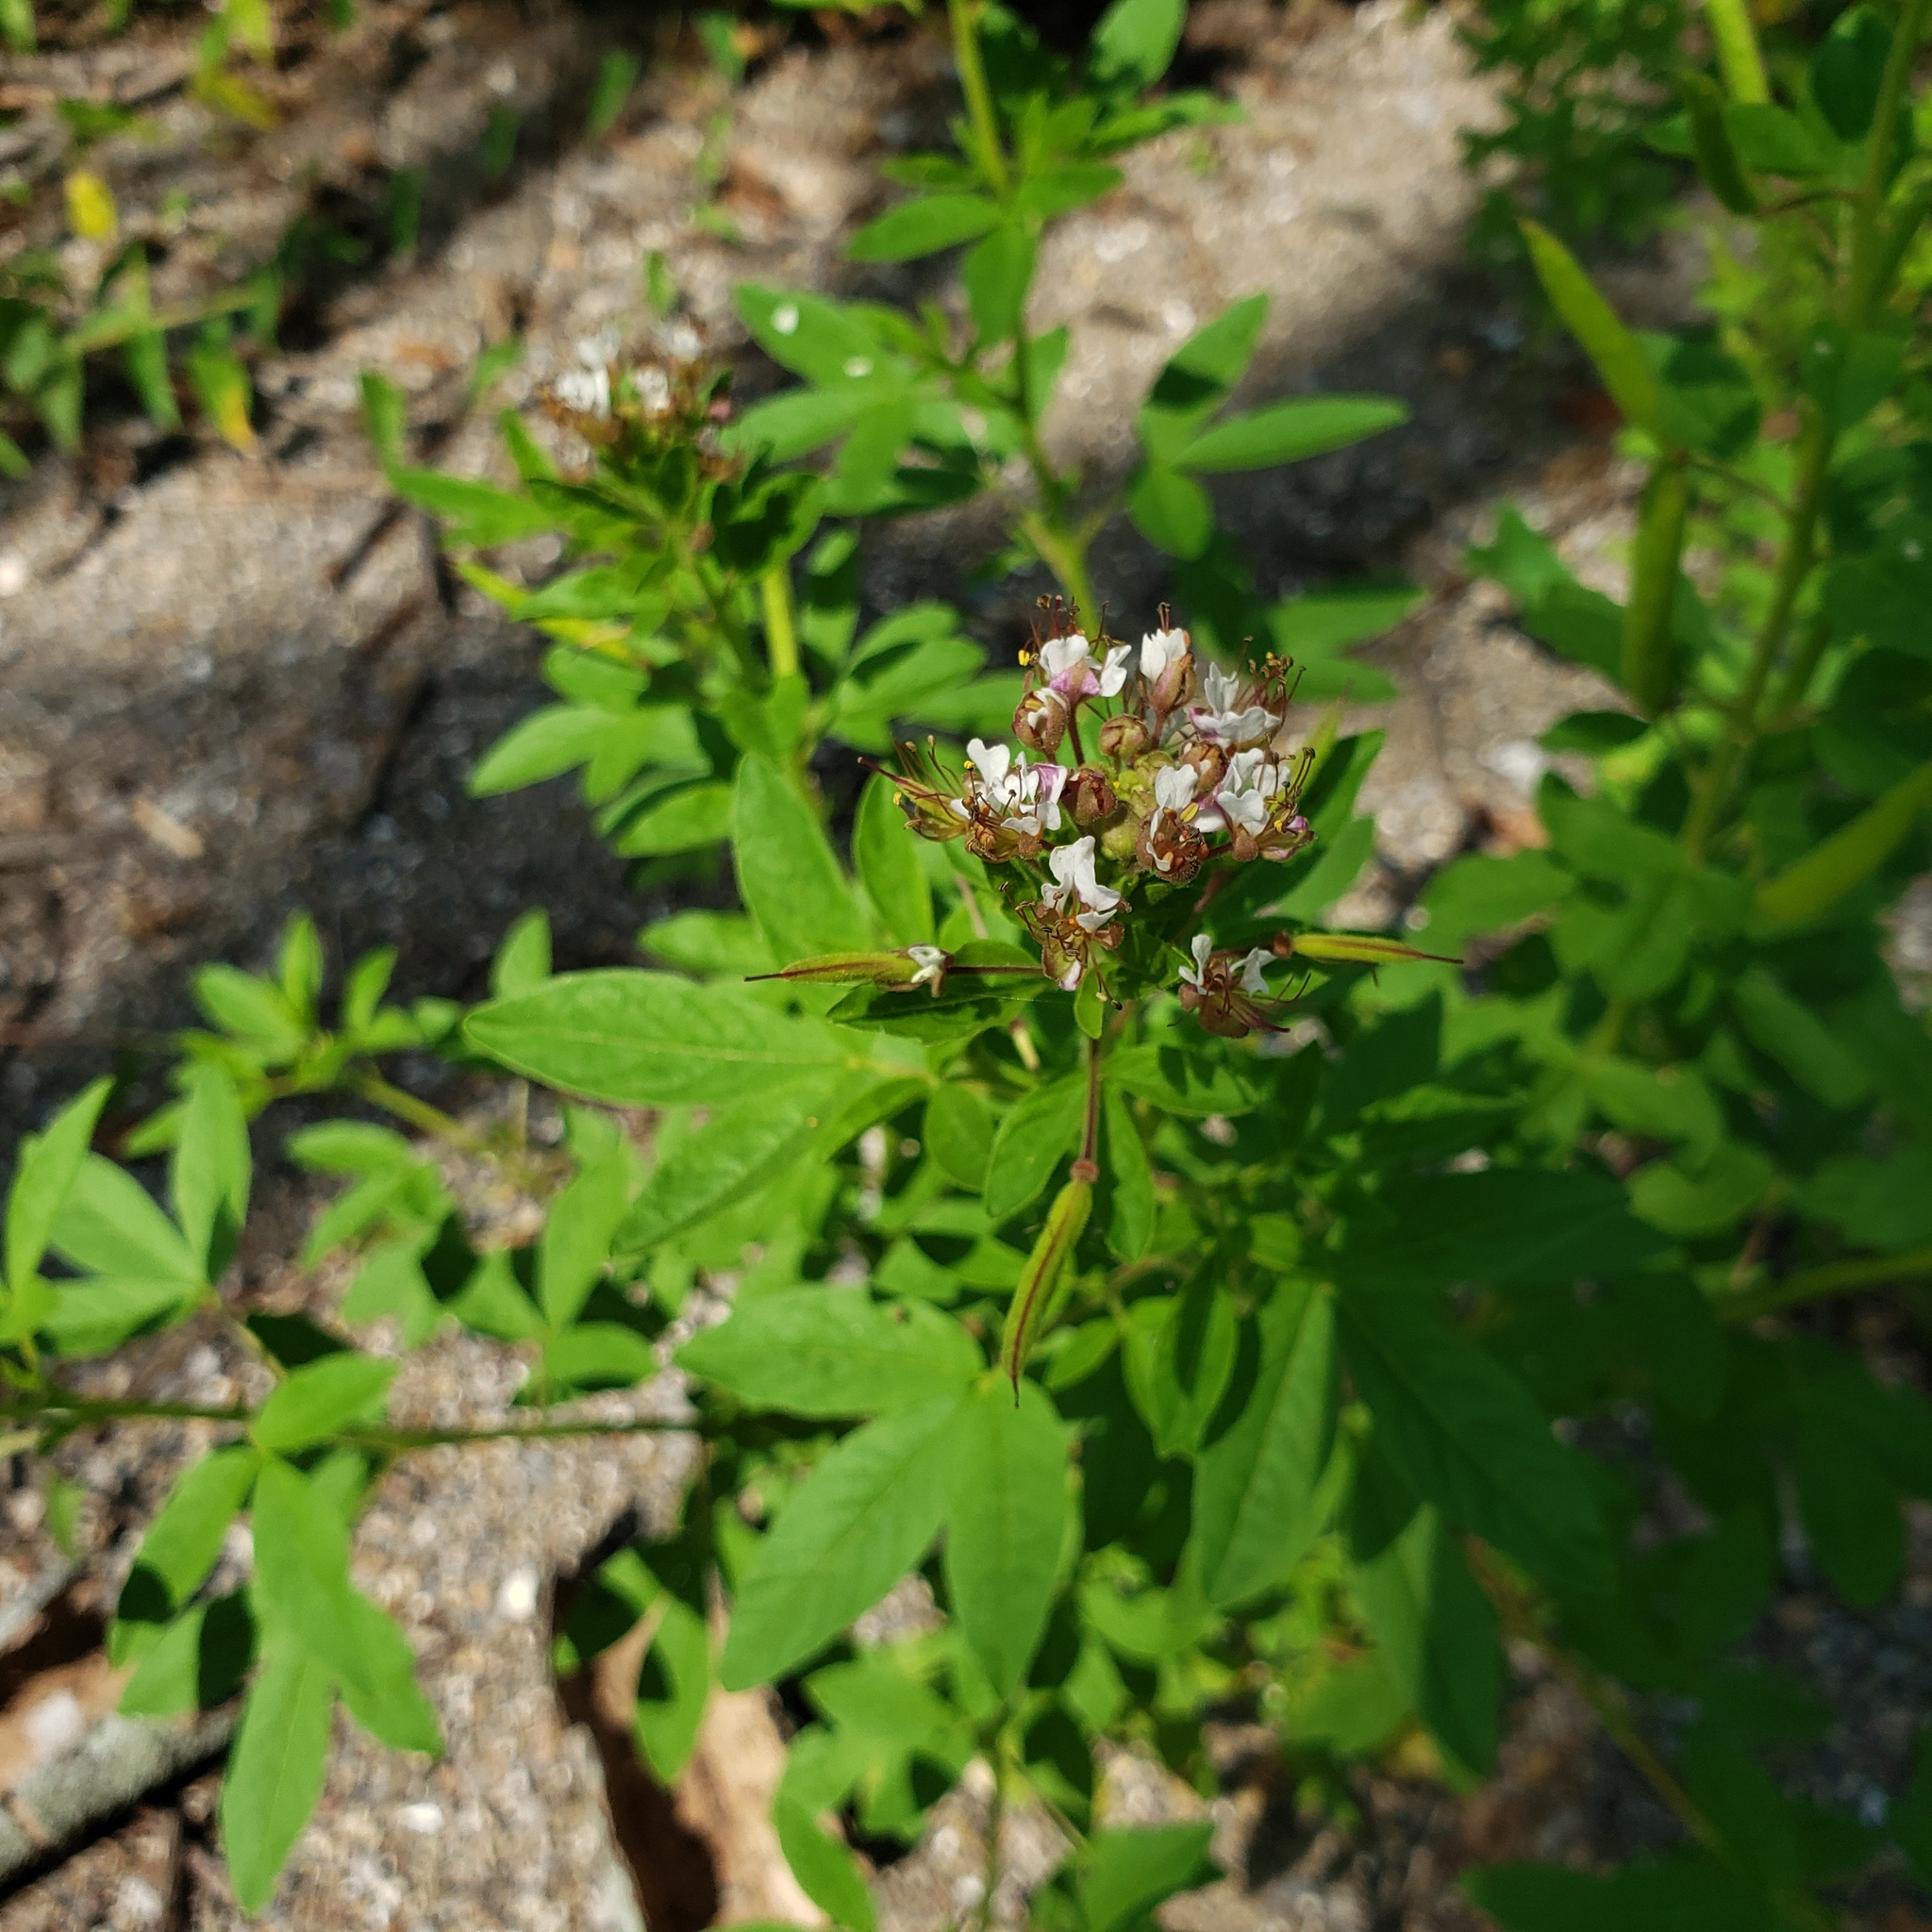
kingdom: Plantae
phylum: Tracheophyta
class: Magnoliopsida
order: Brassicales
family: Cleomaceae
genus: Polanisia
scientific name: Polanisia dodecandra
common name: Clammyweed
